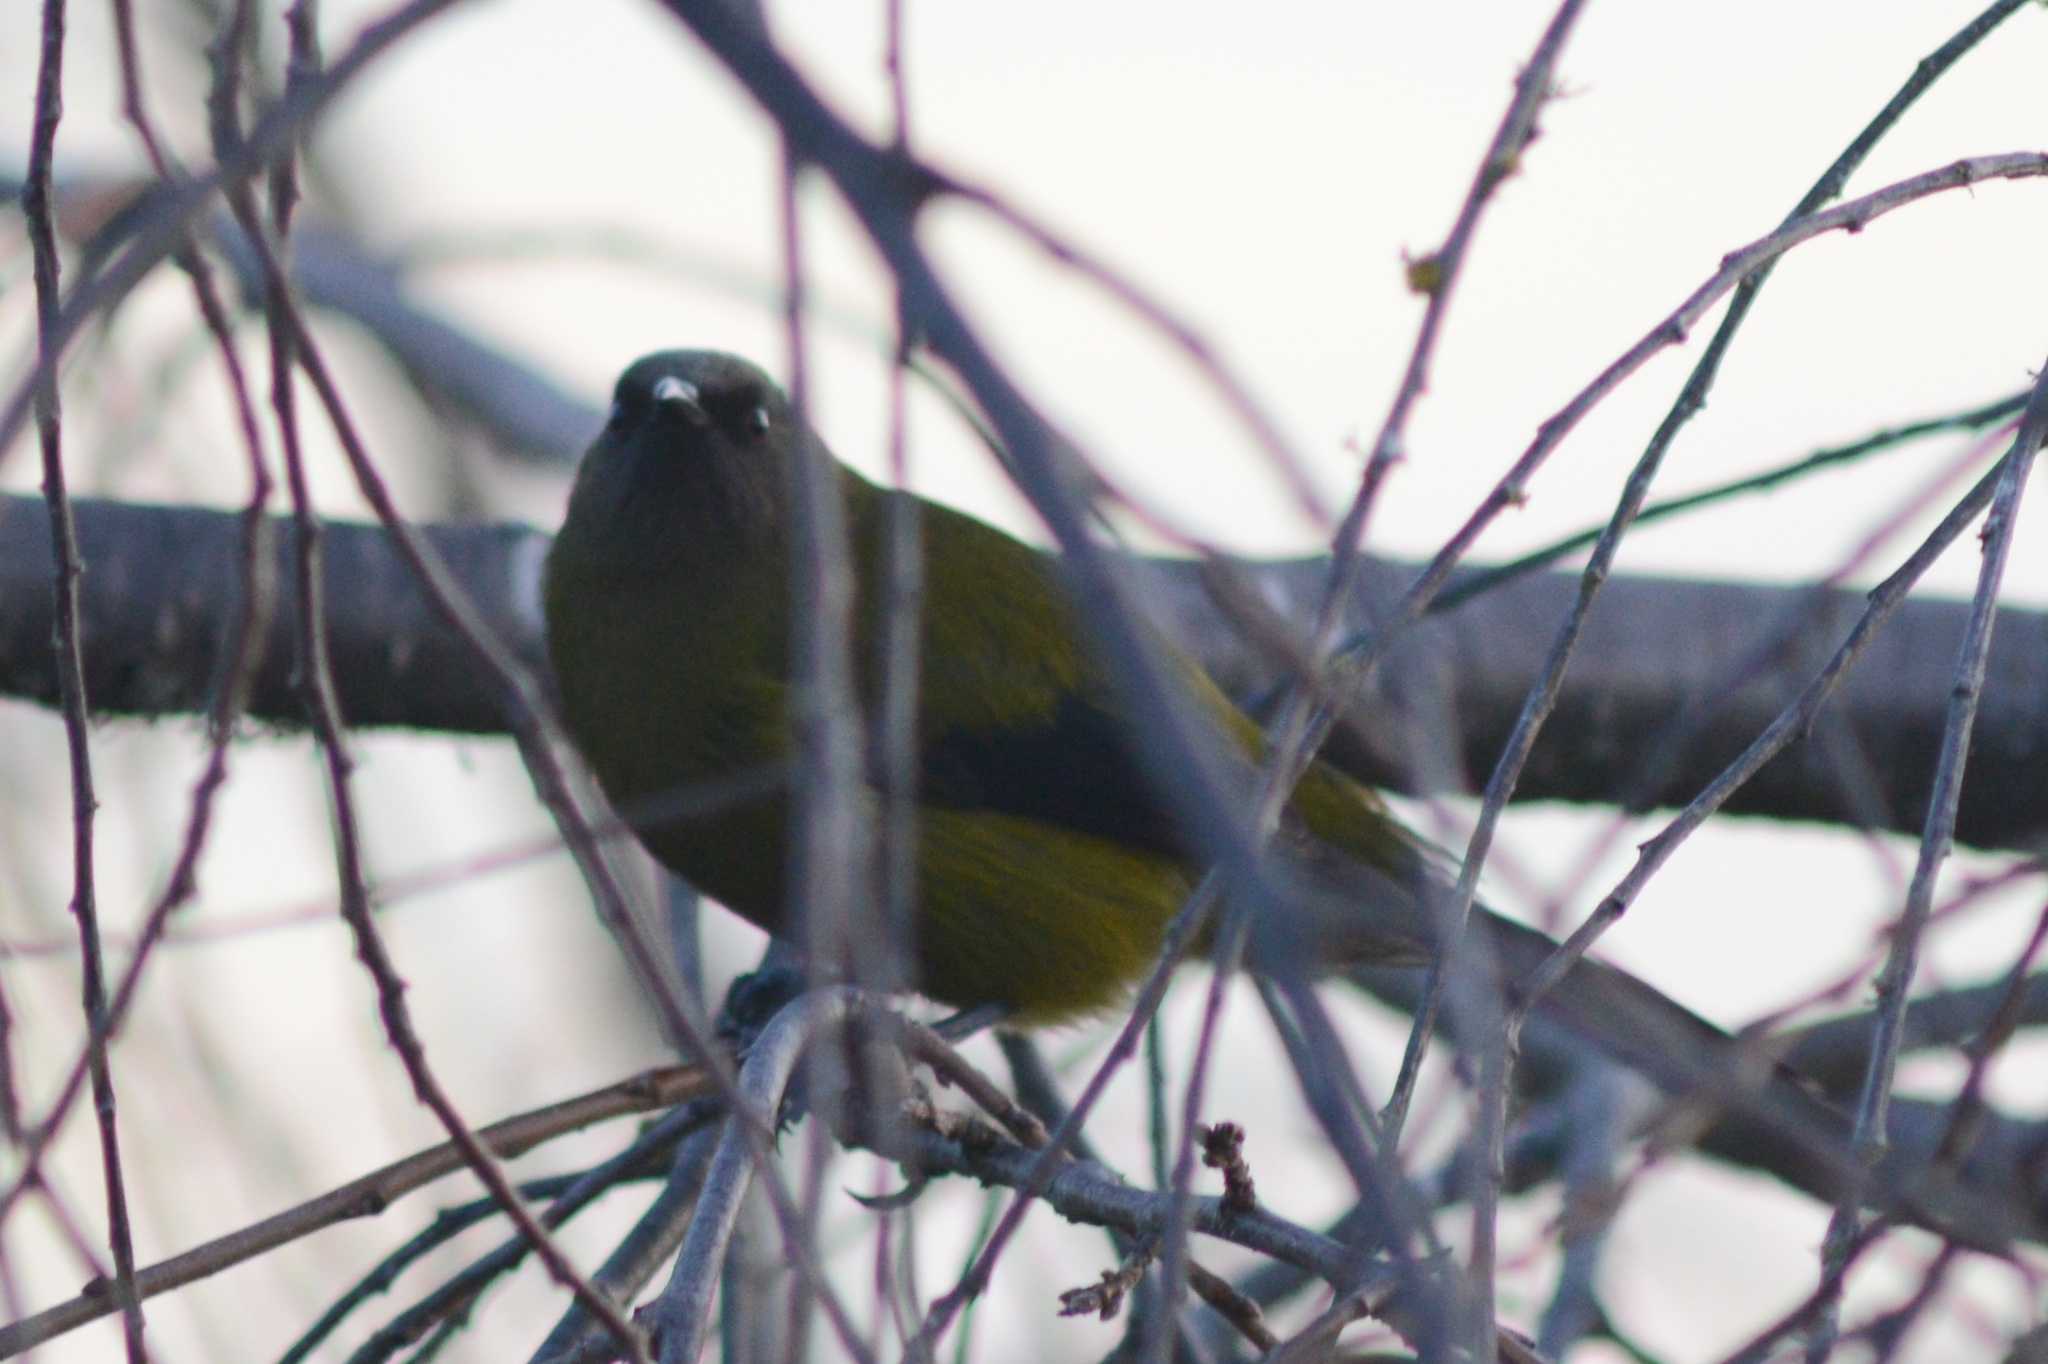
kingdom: Animalia
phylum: Chordata
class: Aves
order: Passeriformes
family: Meliphagidae
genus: Anthornis
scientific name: Anthornis melanura
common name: New zealand bellbird
